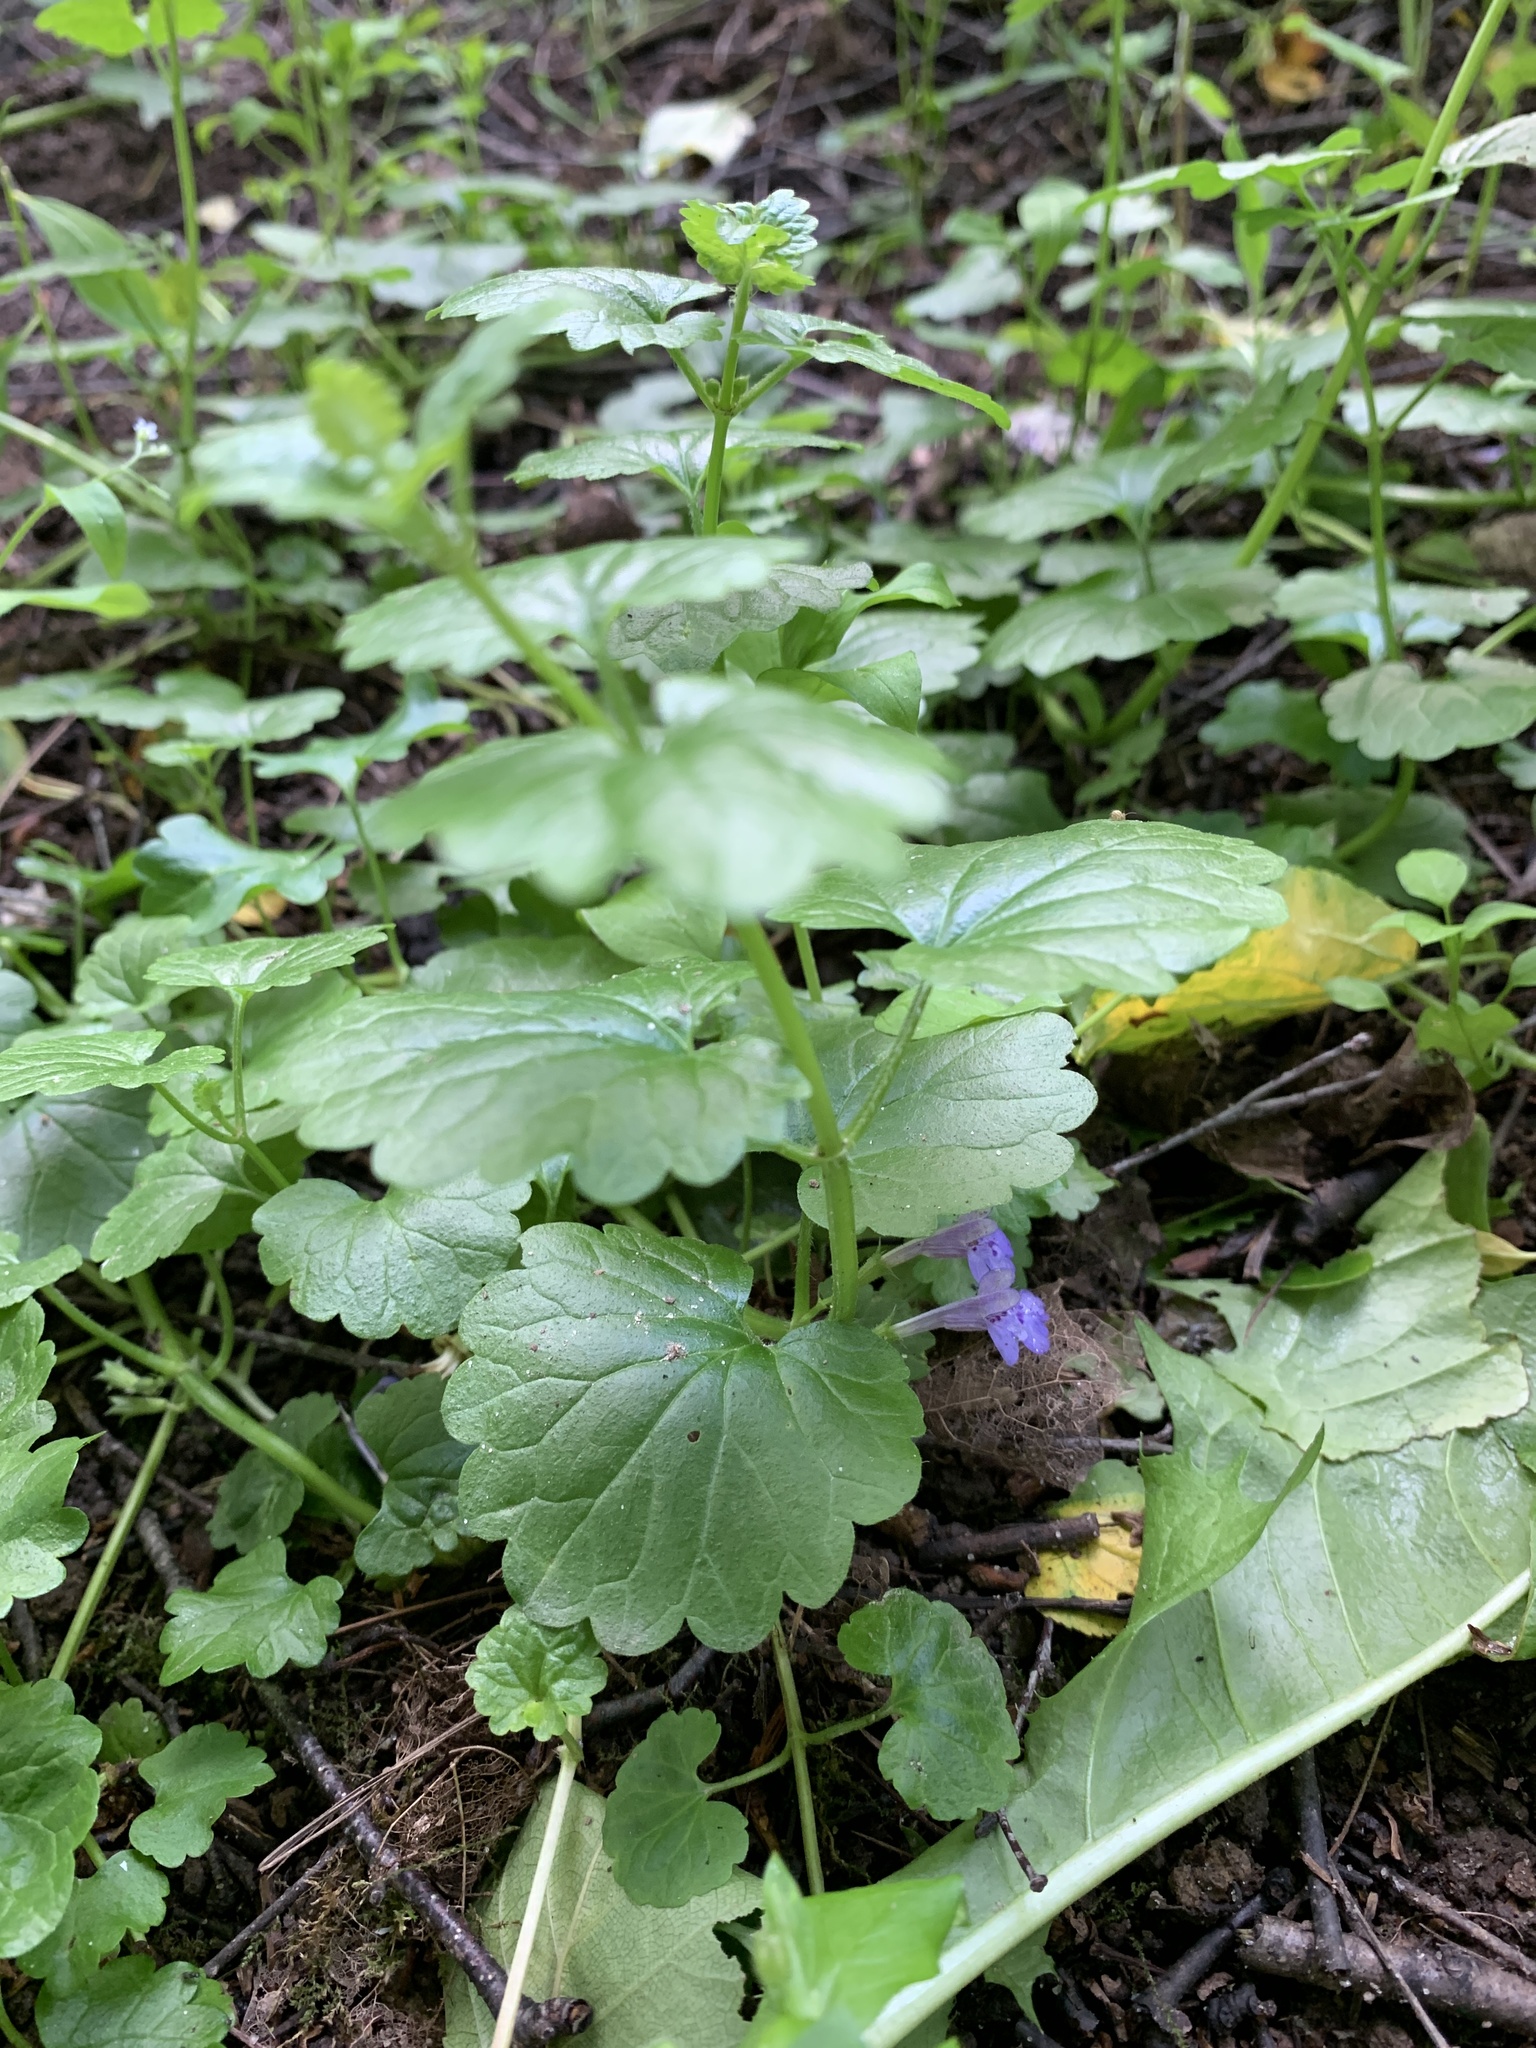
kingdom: Plantae
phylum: Tracheophyta
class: Magnoliopsida
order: Lamiales
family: Lamiaceae
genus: Glechoma
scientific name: Glechoma hederacea
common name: Ground ivy
